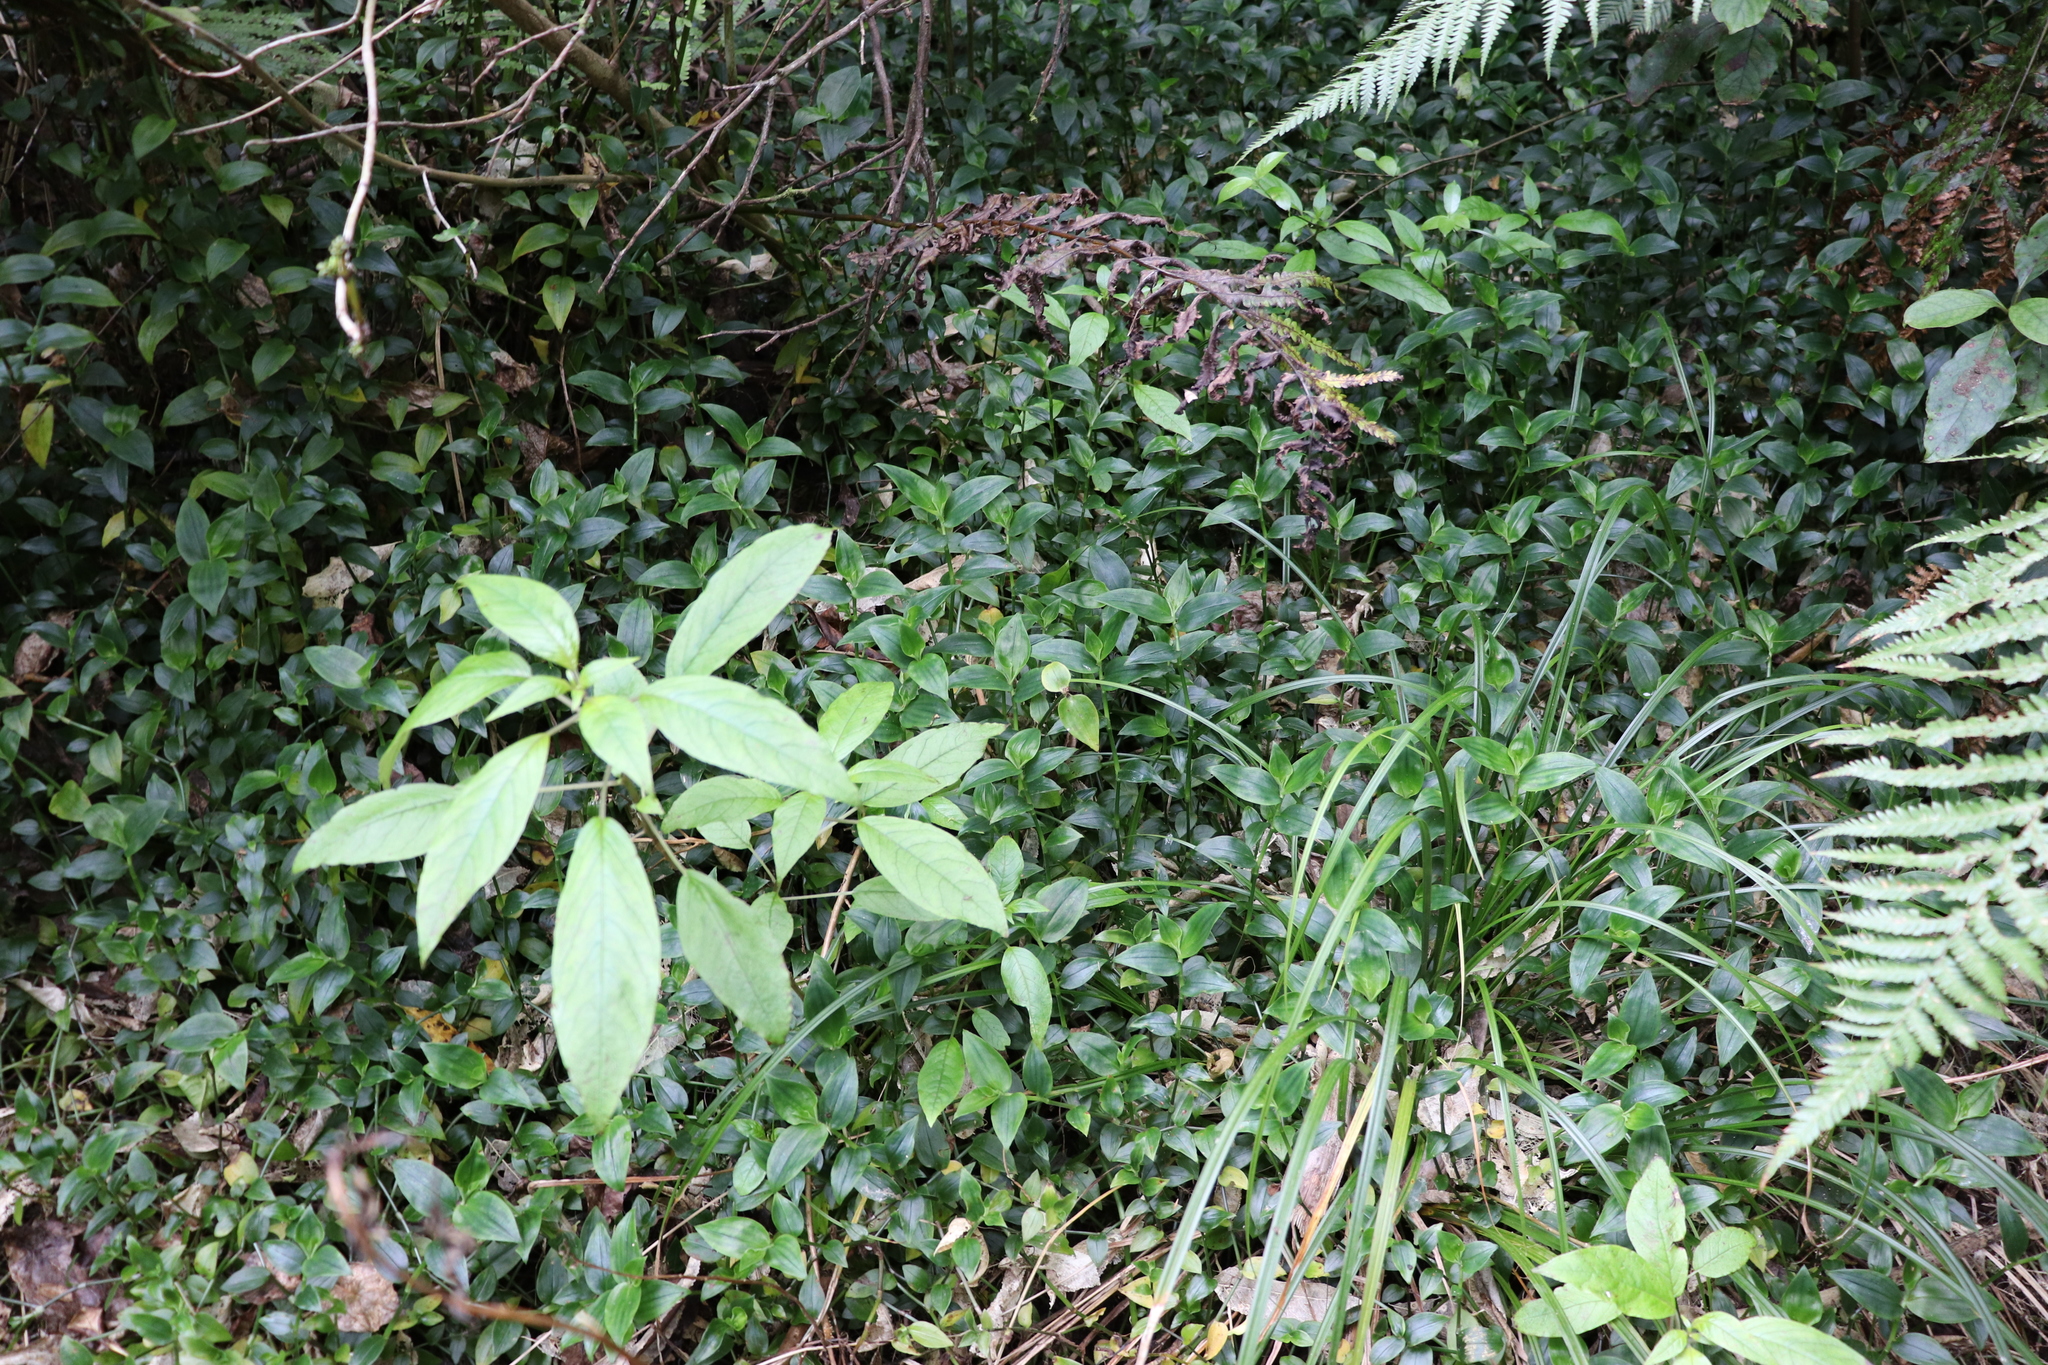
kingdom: Plantae
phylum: Tracheophyta
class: Magnoliopsida
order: Myrtales
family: Onagraceae
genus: Fuchsia
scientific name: Fuchsia excorticata
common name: Tree fuchsia
